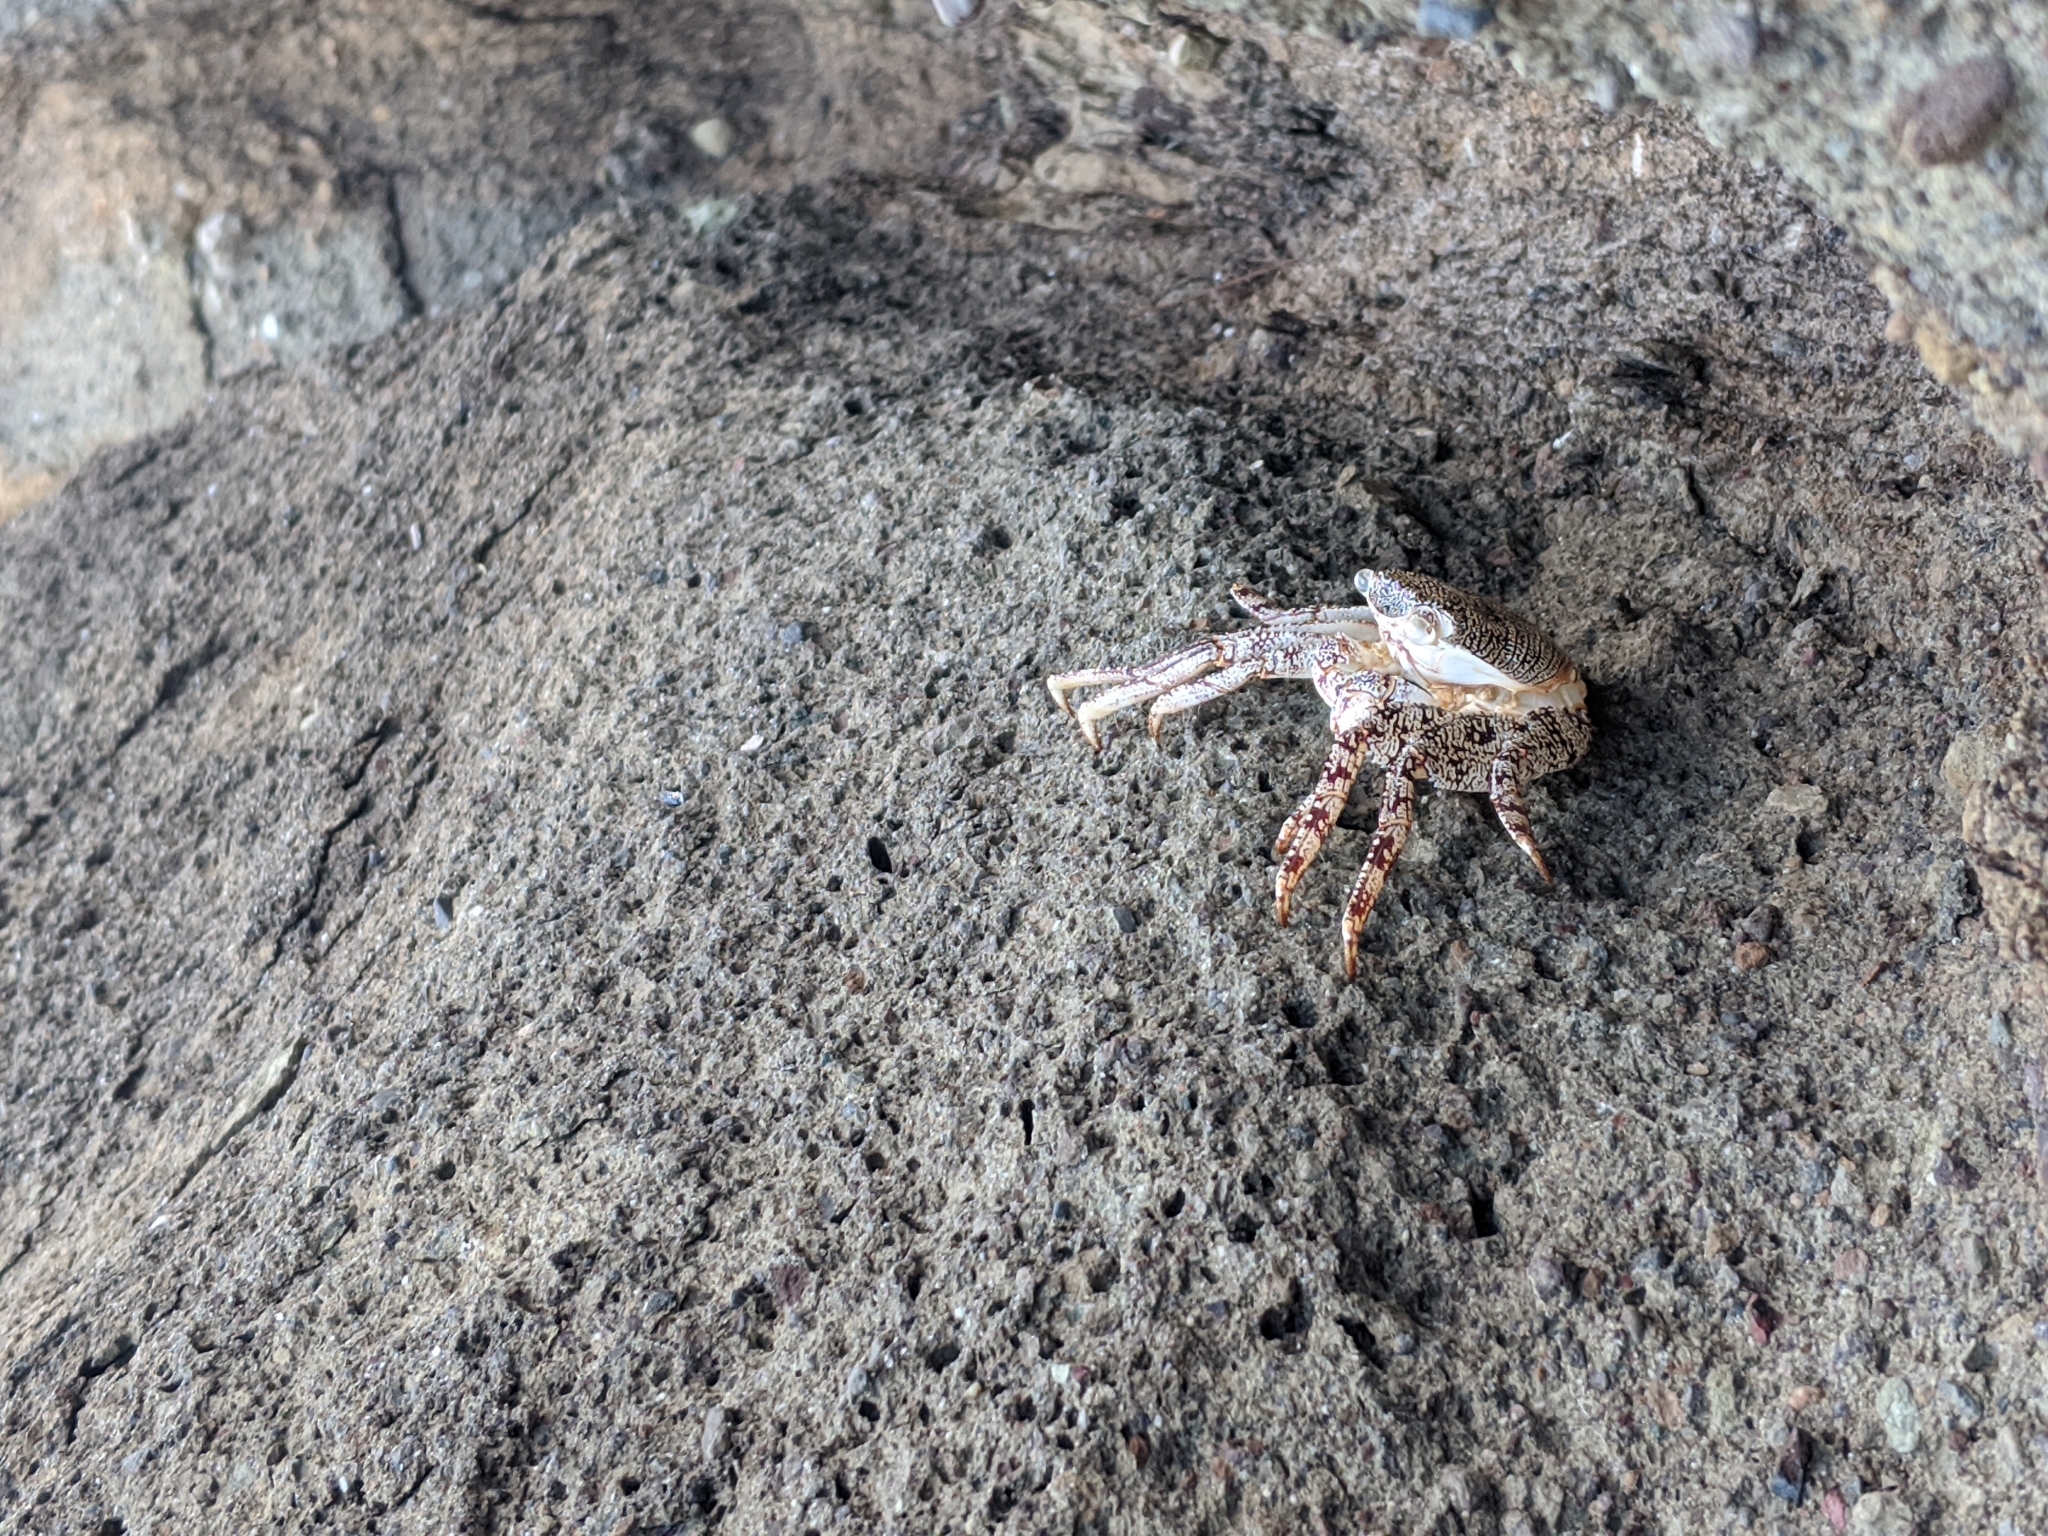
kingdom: Animalia
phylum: Arthropoda
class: Malacostraca
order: Decapoda
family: Grapsidae
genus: Grapsus
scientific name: Grapsus grapsus
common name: Sally lightfoot
